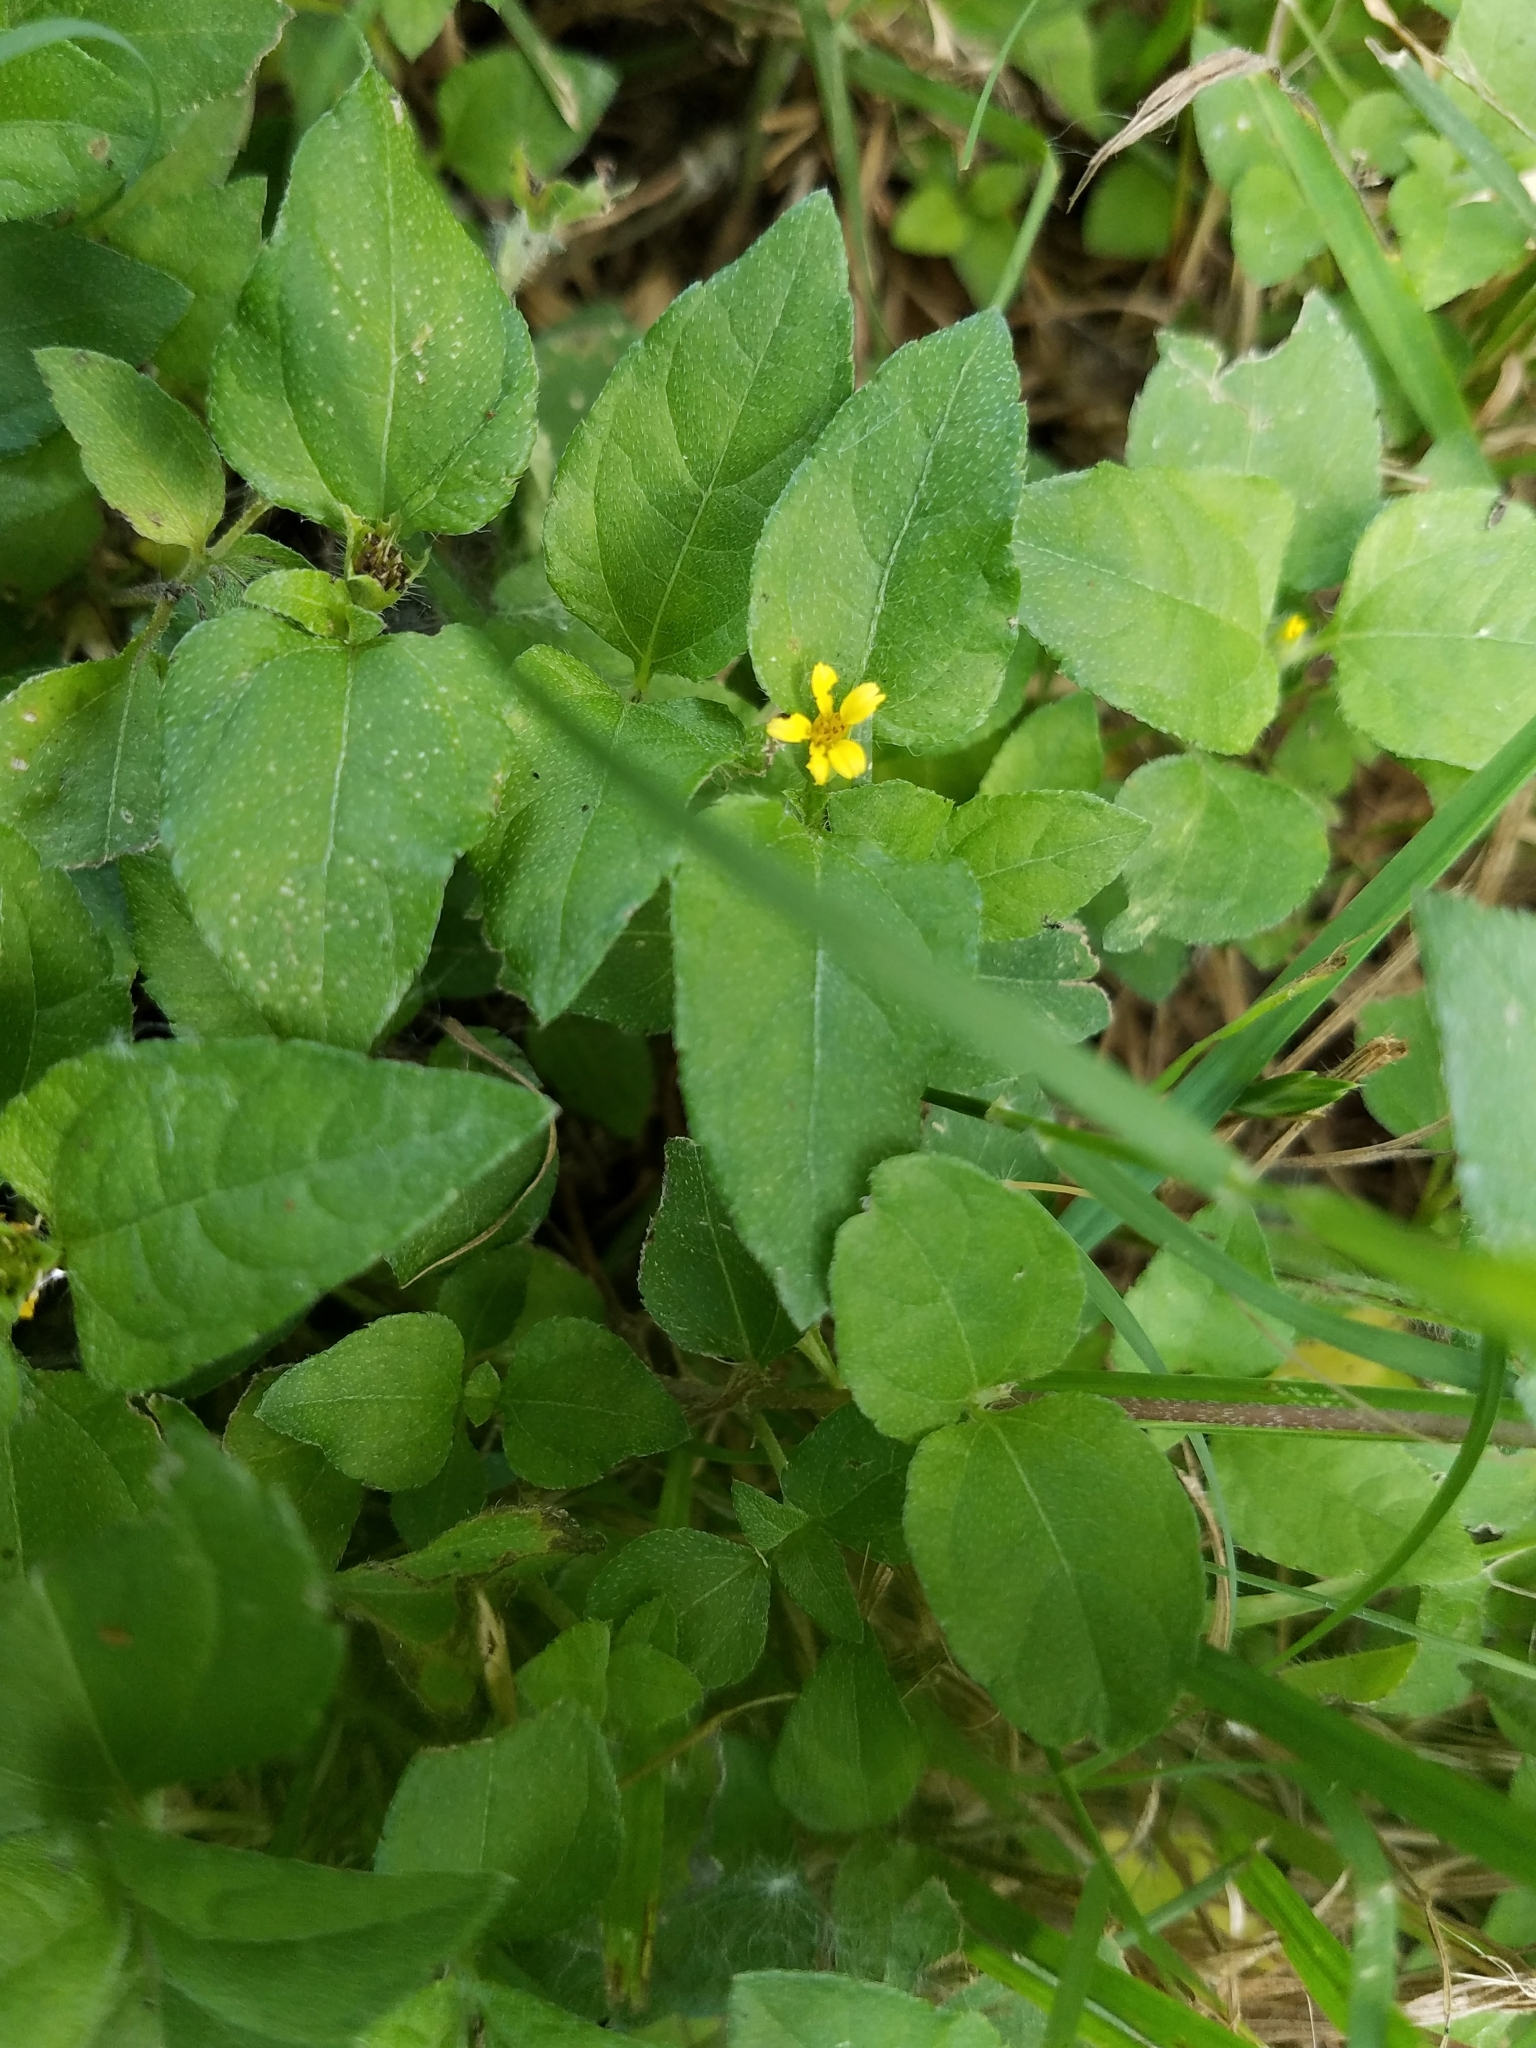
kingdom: Plantae
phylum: Tracheophyta
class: Magnoliopsida
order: Asterales
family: Asteraceae
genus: Calyptocarpus
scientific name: Calyptocarpus vialis
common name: Straggler daisy
